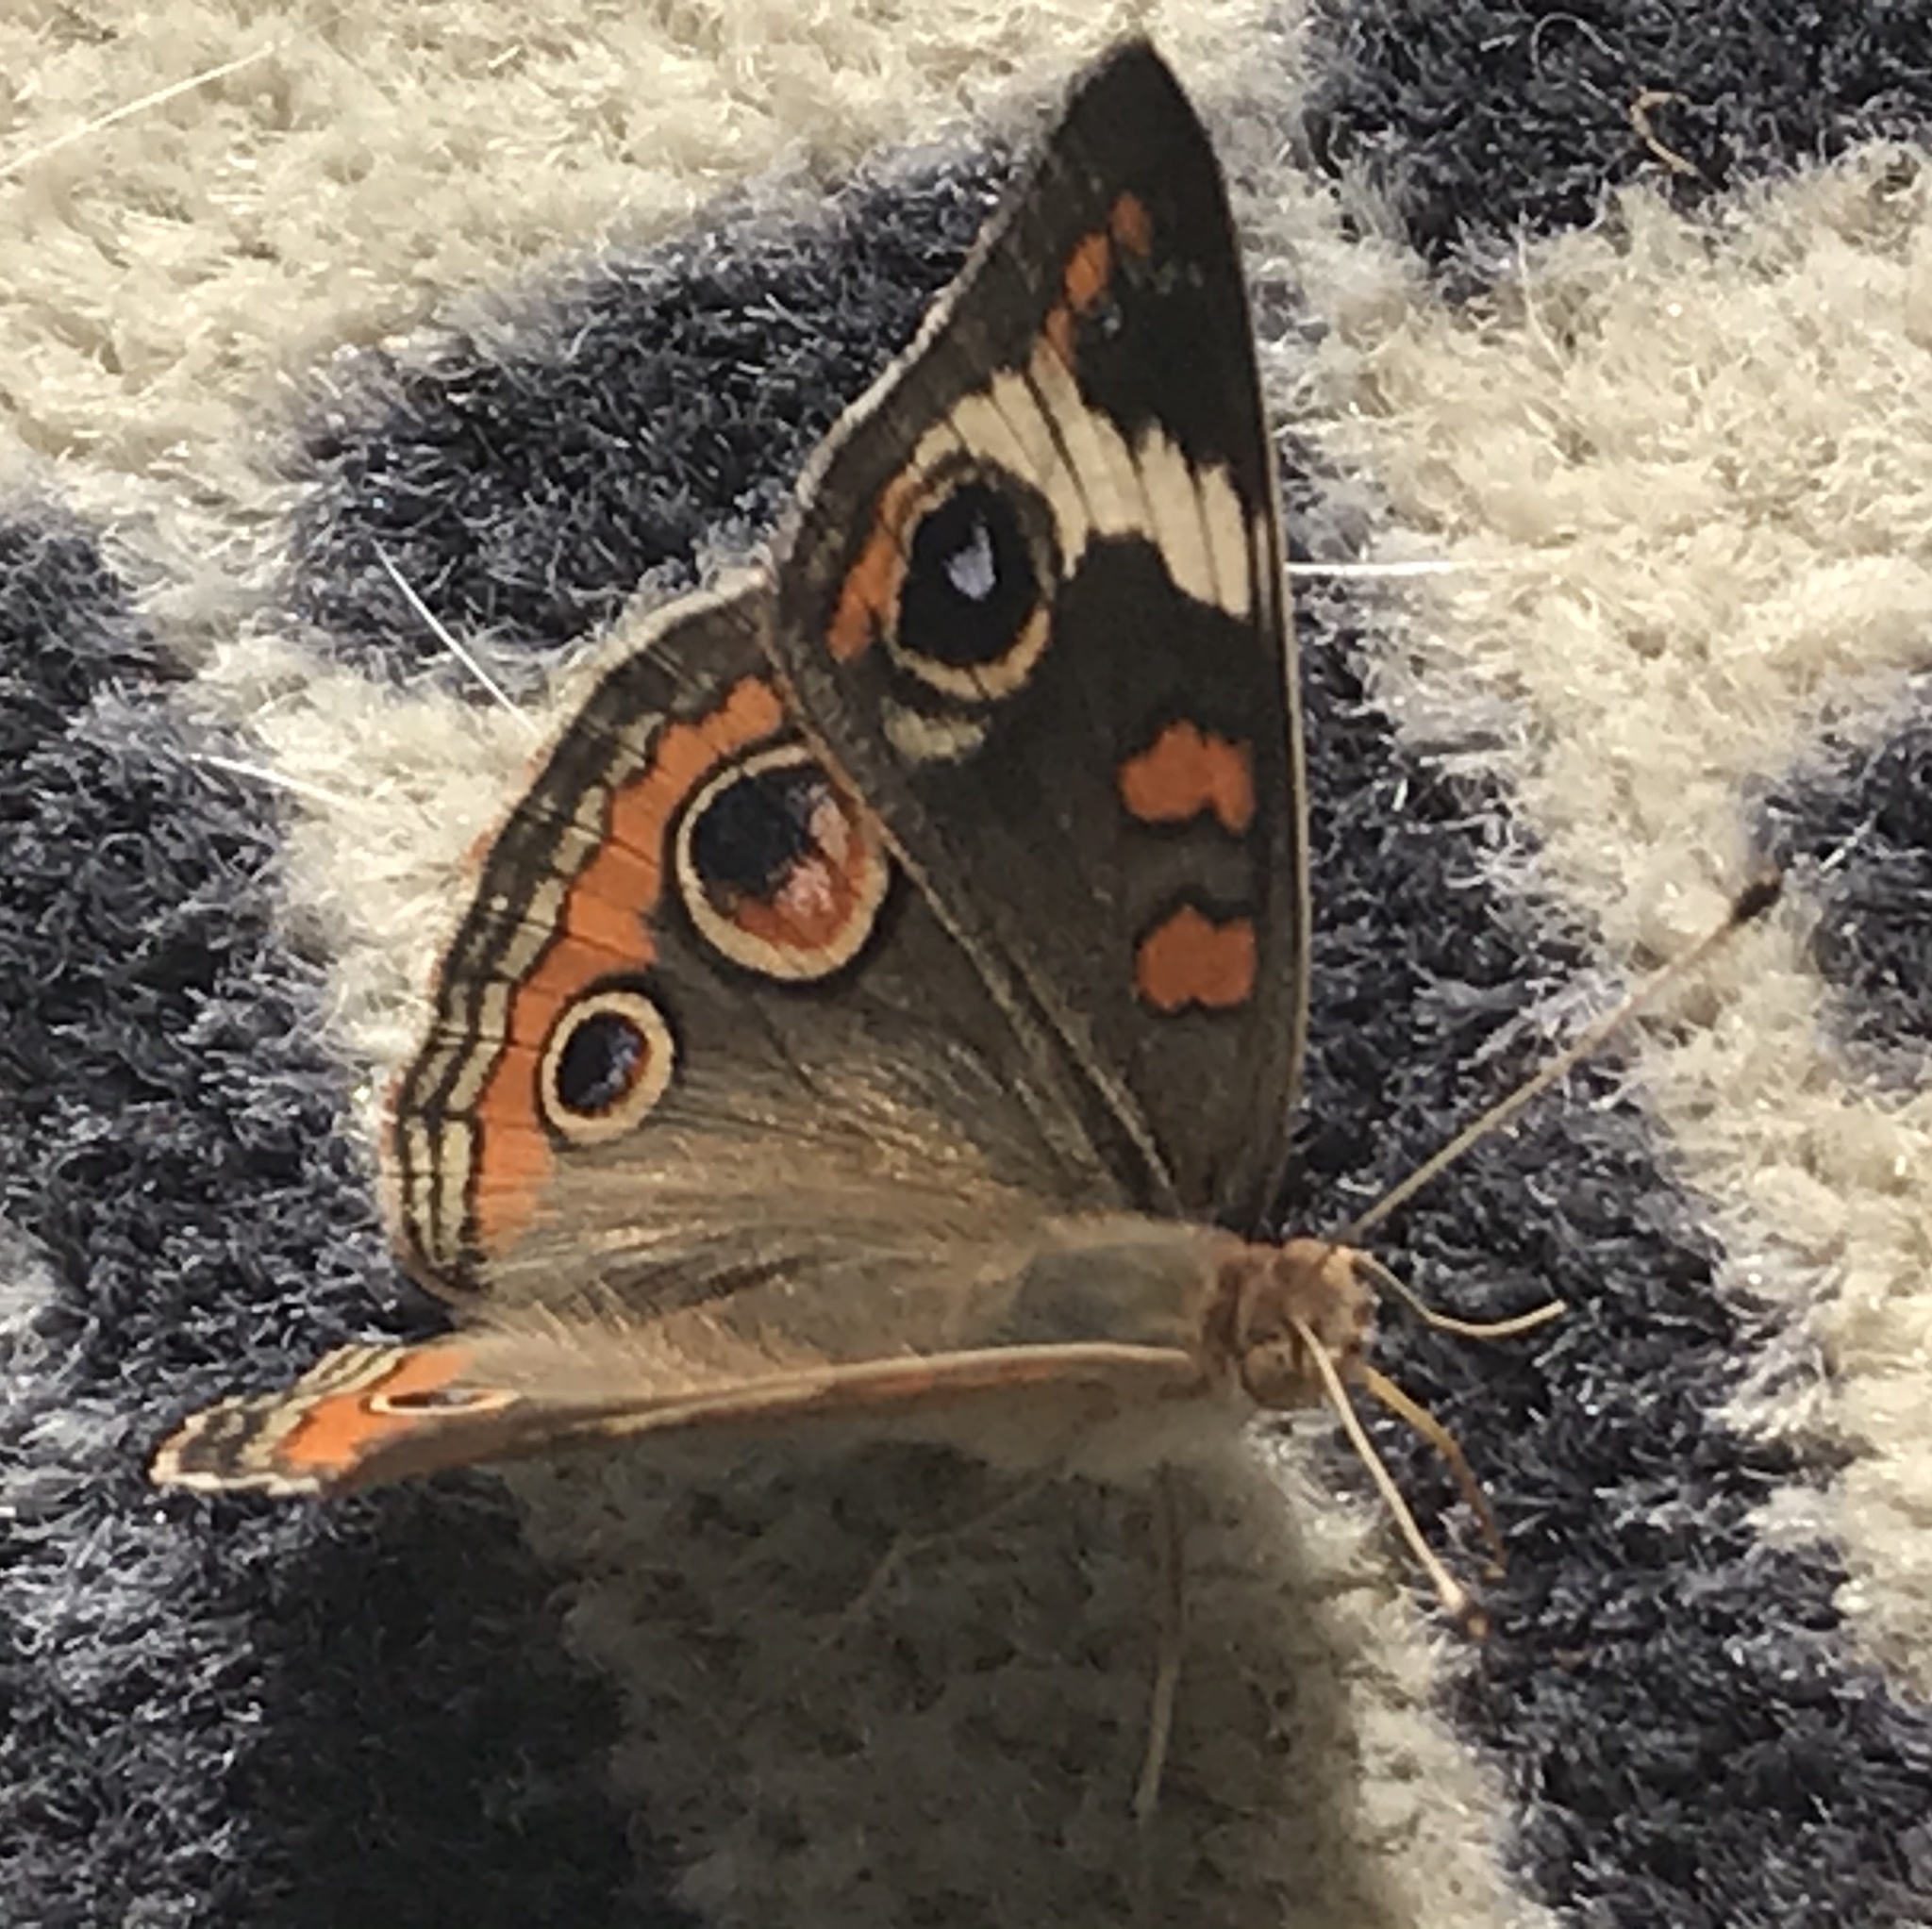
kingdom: Animalia
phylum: Arthropoda
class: Insecta
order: Lepidoptera
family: Nymphalidae
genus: Junonia
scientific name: Junonia coenia
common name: Common buckeye
